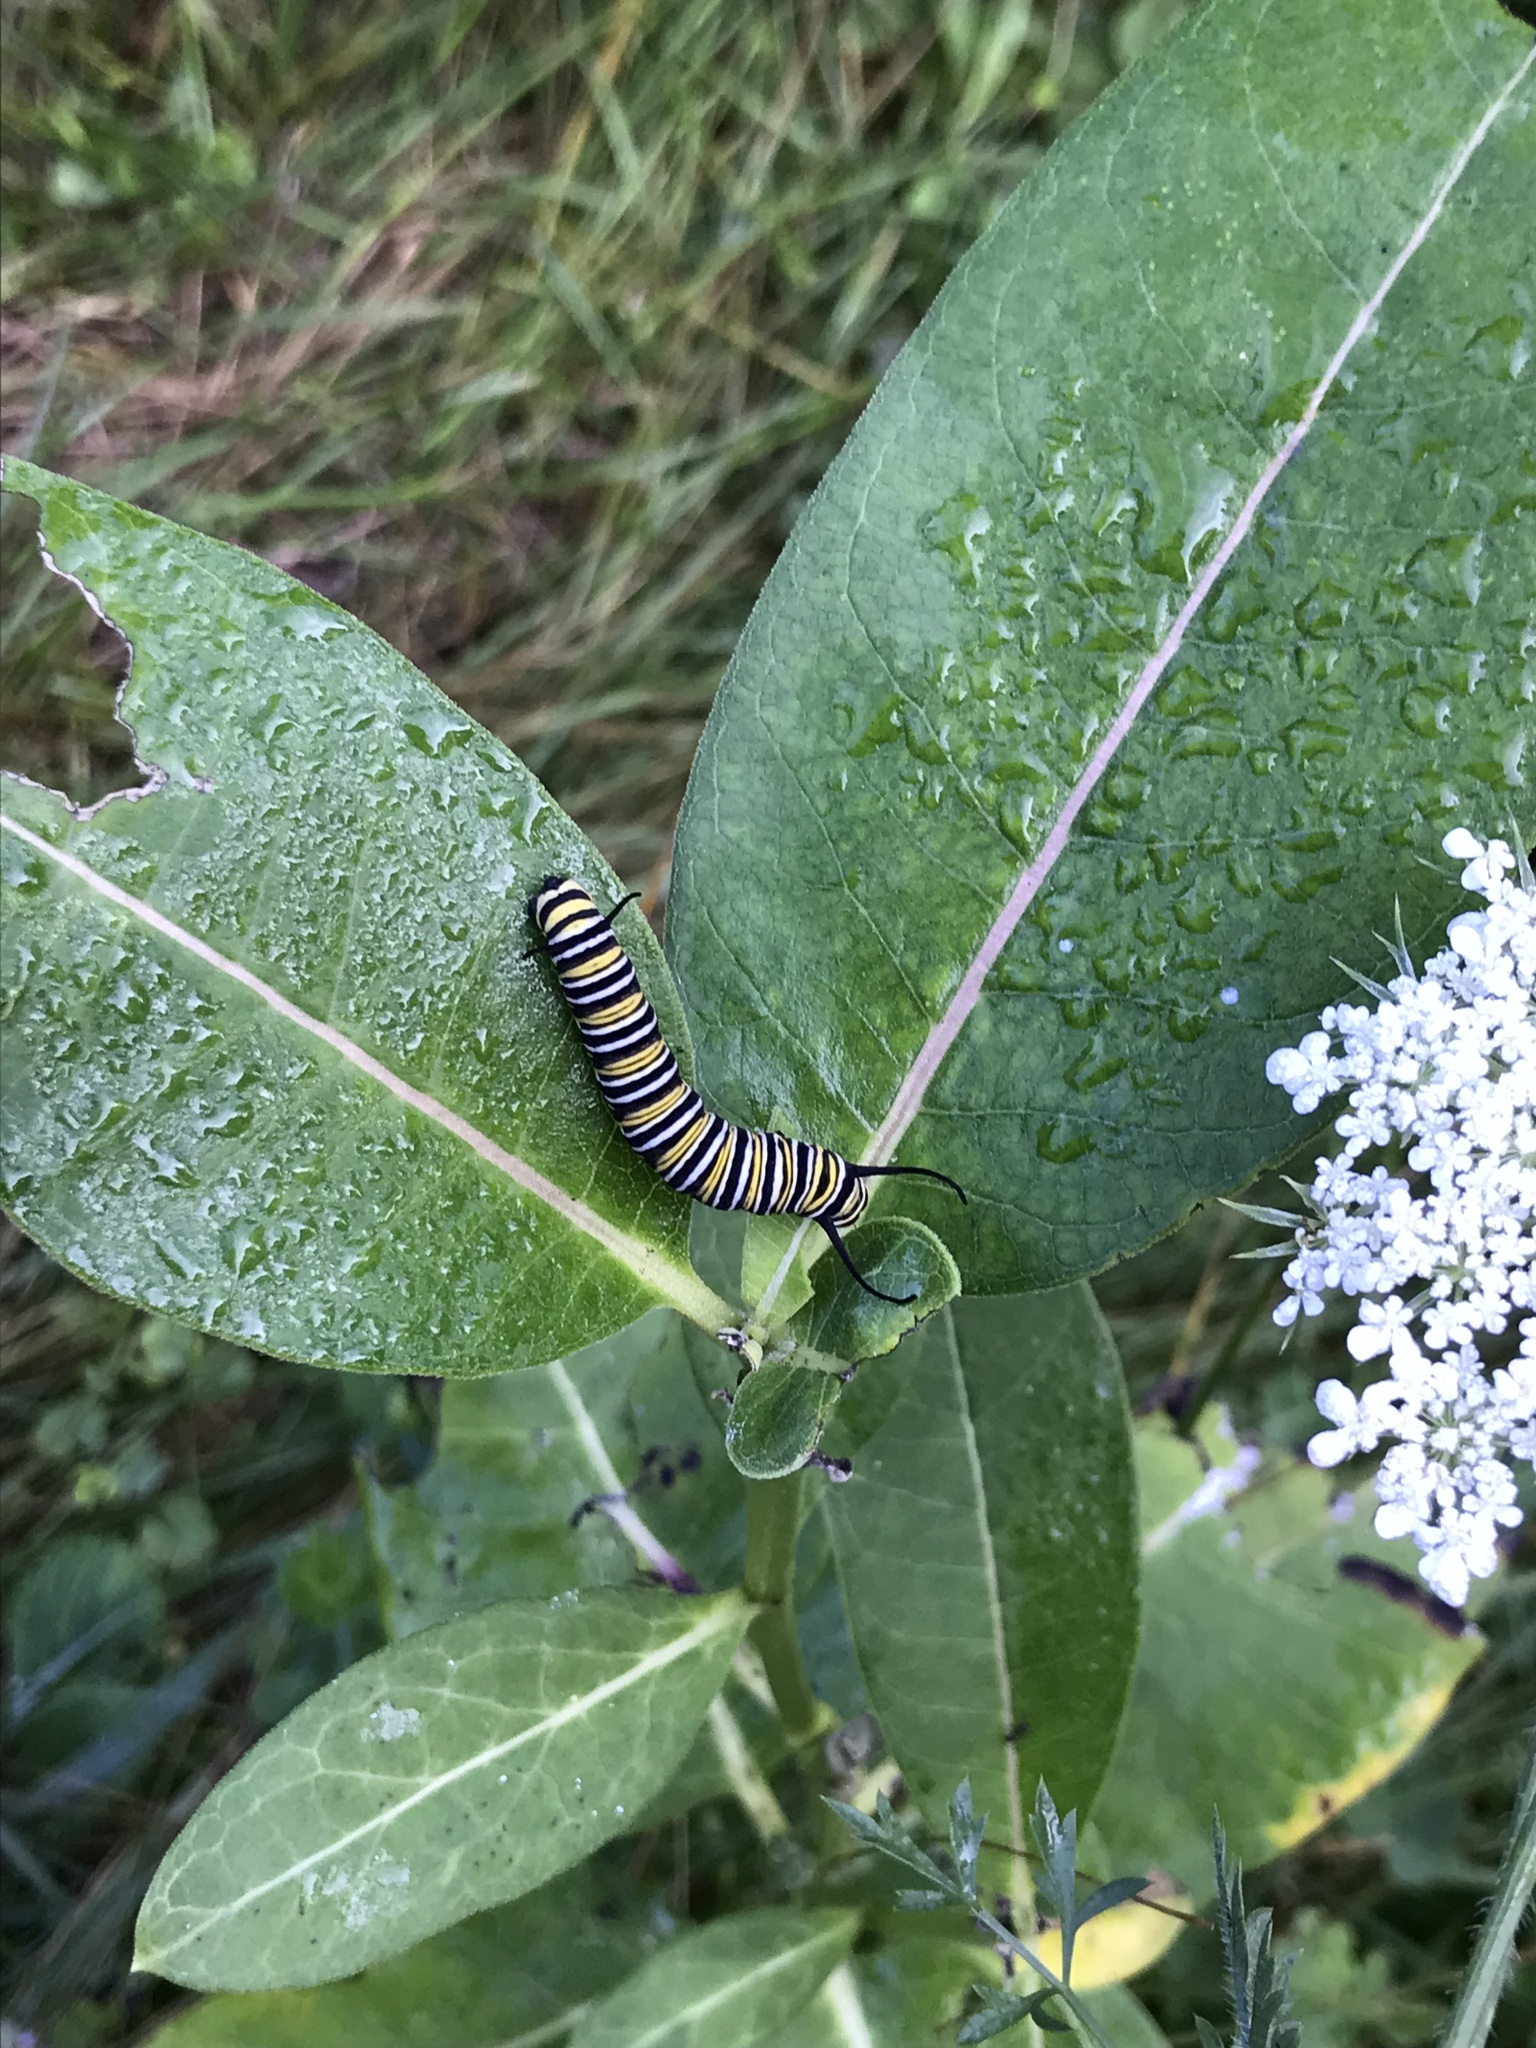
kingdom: Animalia
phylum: Arthropoda
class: Insecta
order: Lepidoptera
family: Nymphalidae
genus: Danaus
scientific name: Danaus plexippus
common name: Monarch
